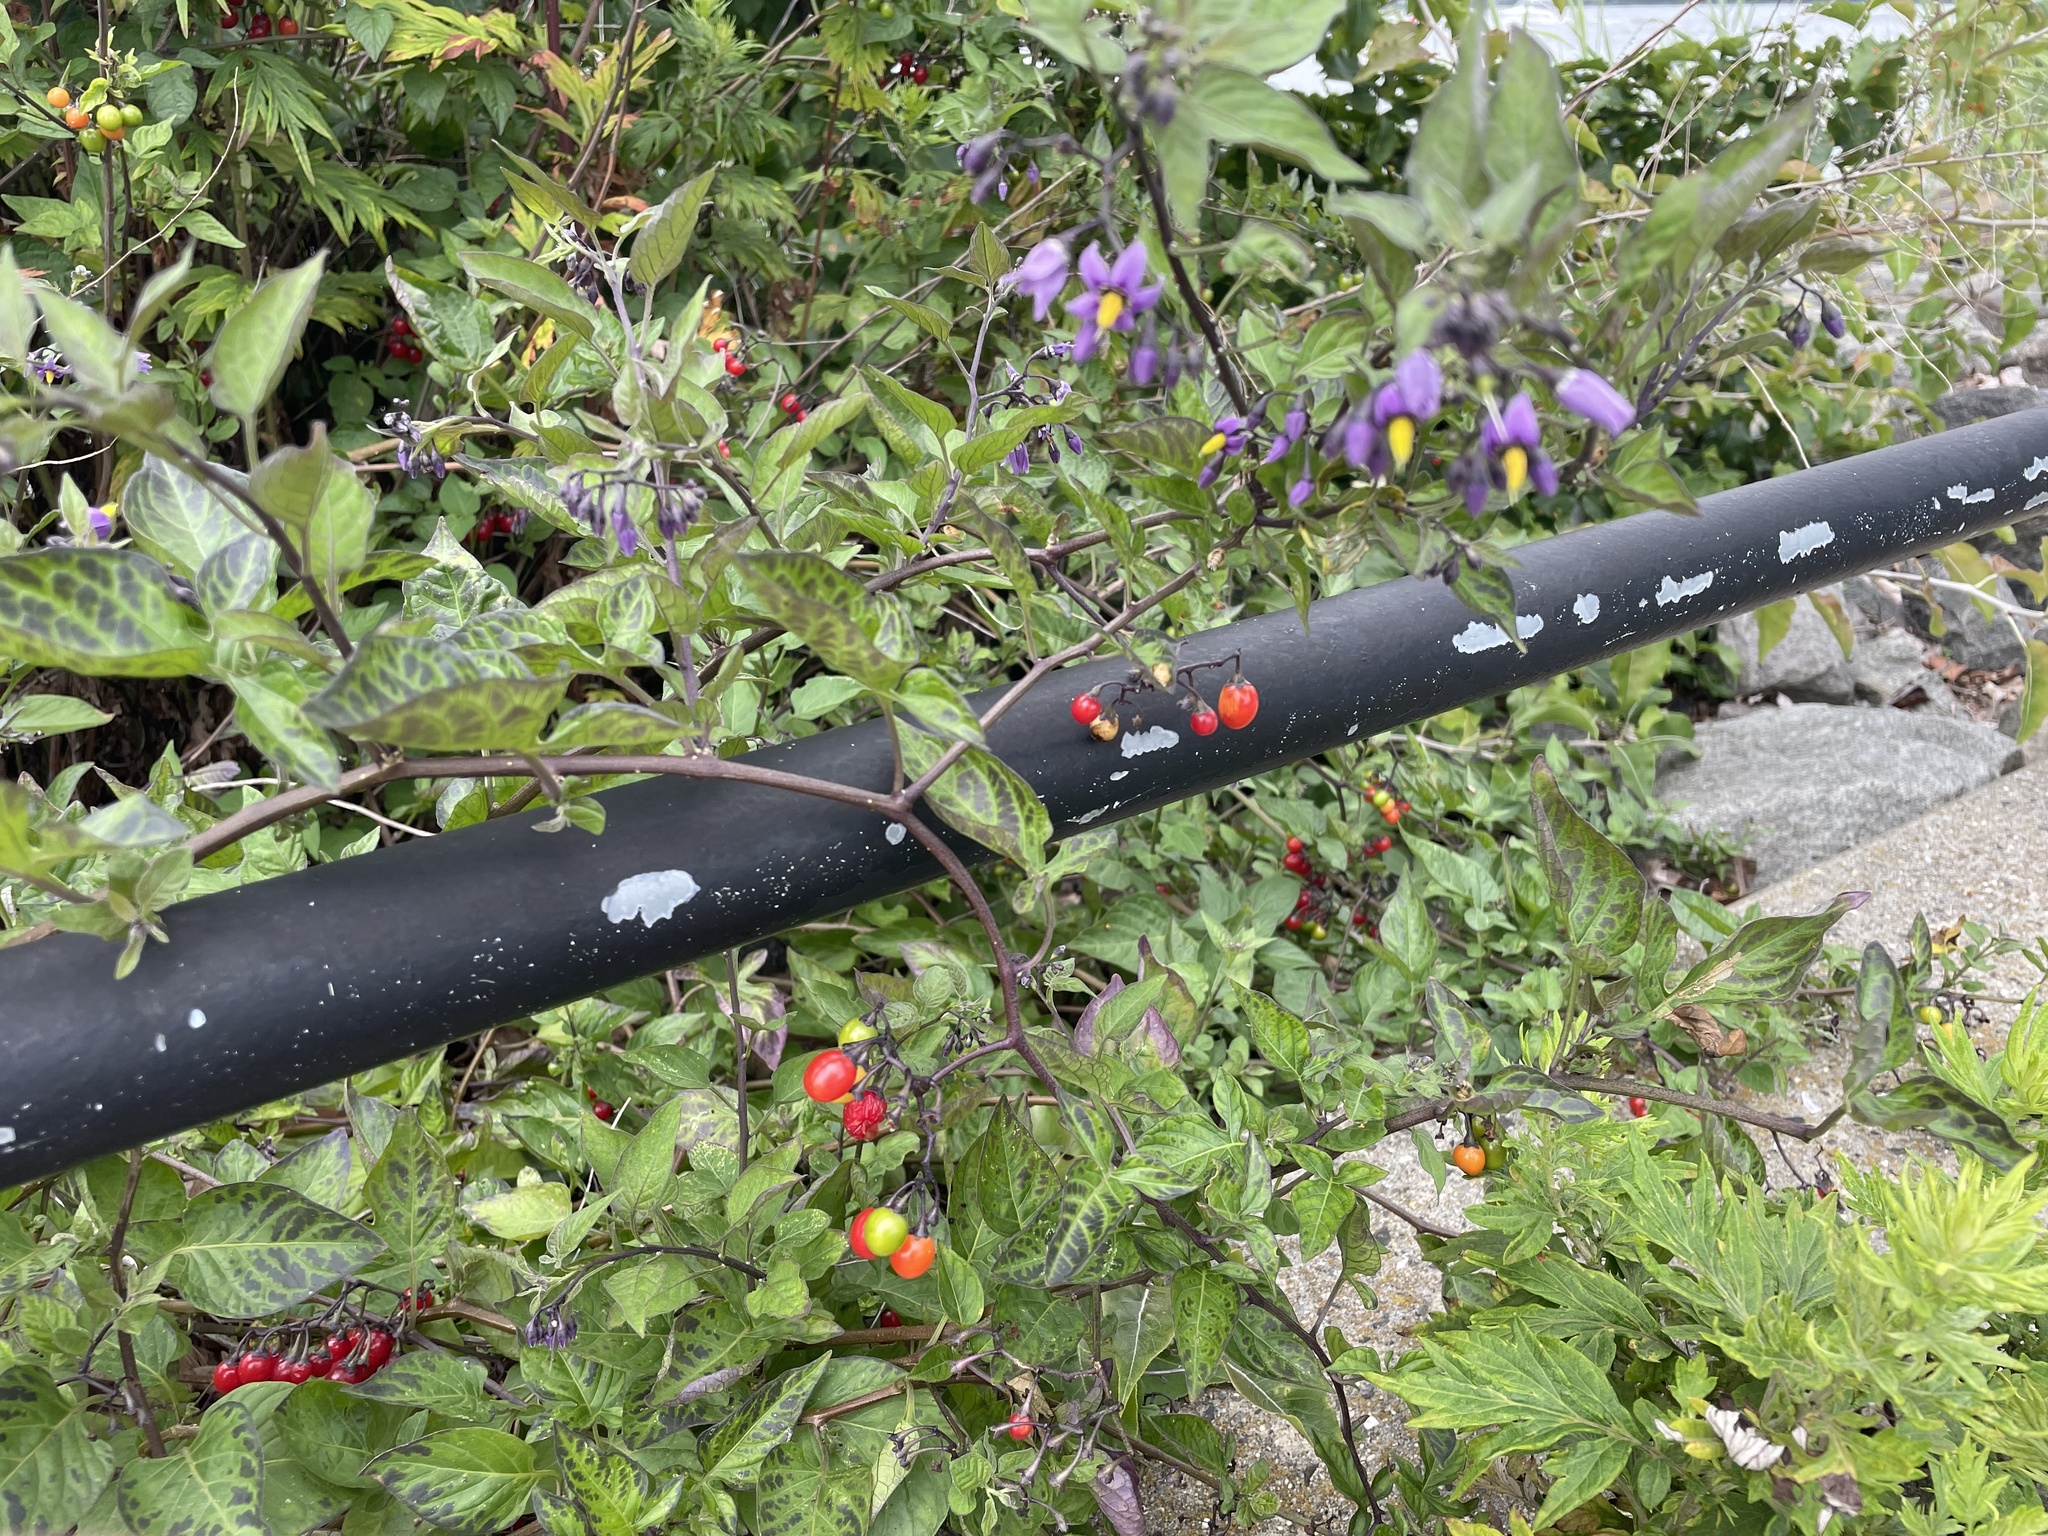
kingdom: Plantae
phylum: Tracheophyta
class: Magnoliopsida
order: Solanales
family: Solanaceae
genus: Solanum
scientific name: Solanum dulcamara
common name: Climbing nightshade
